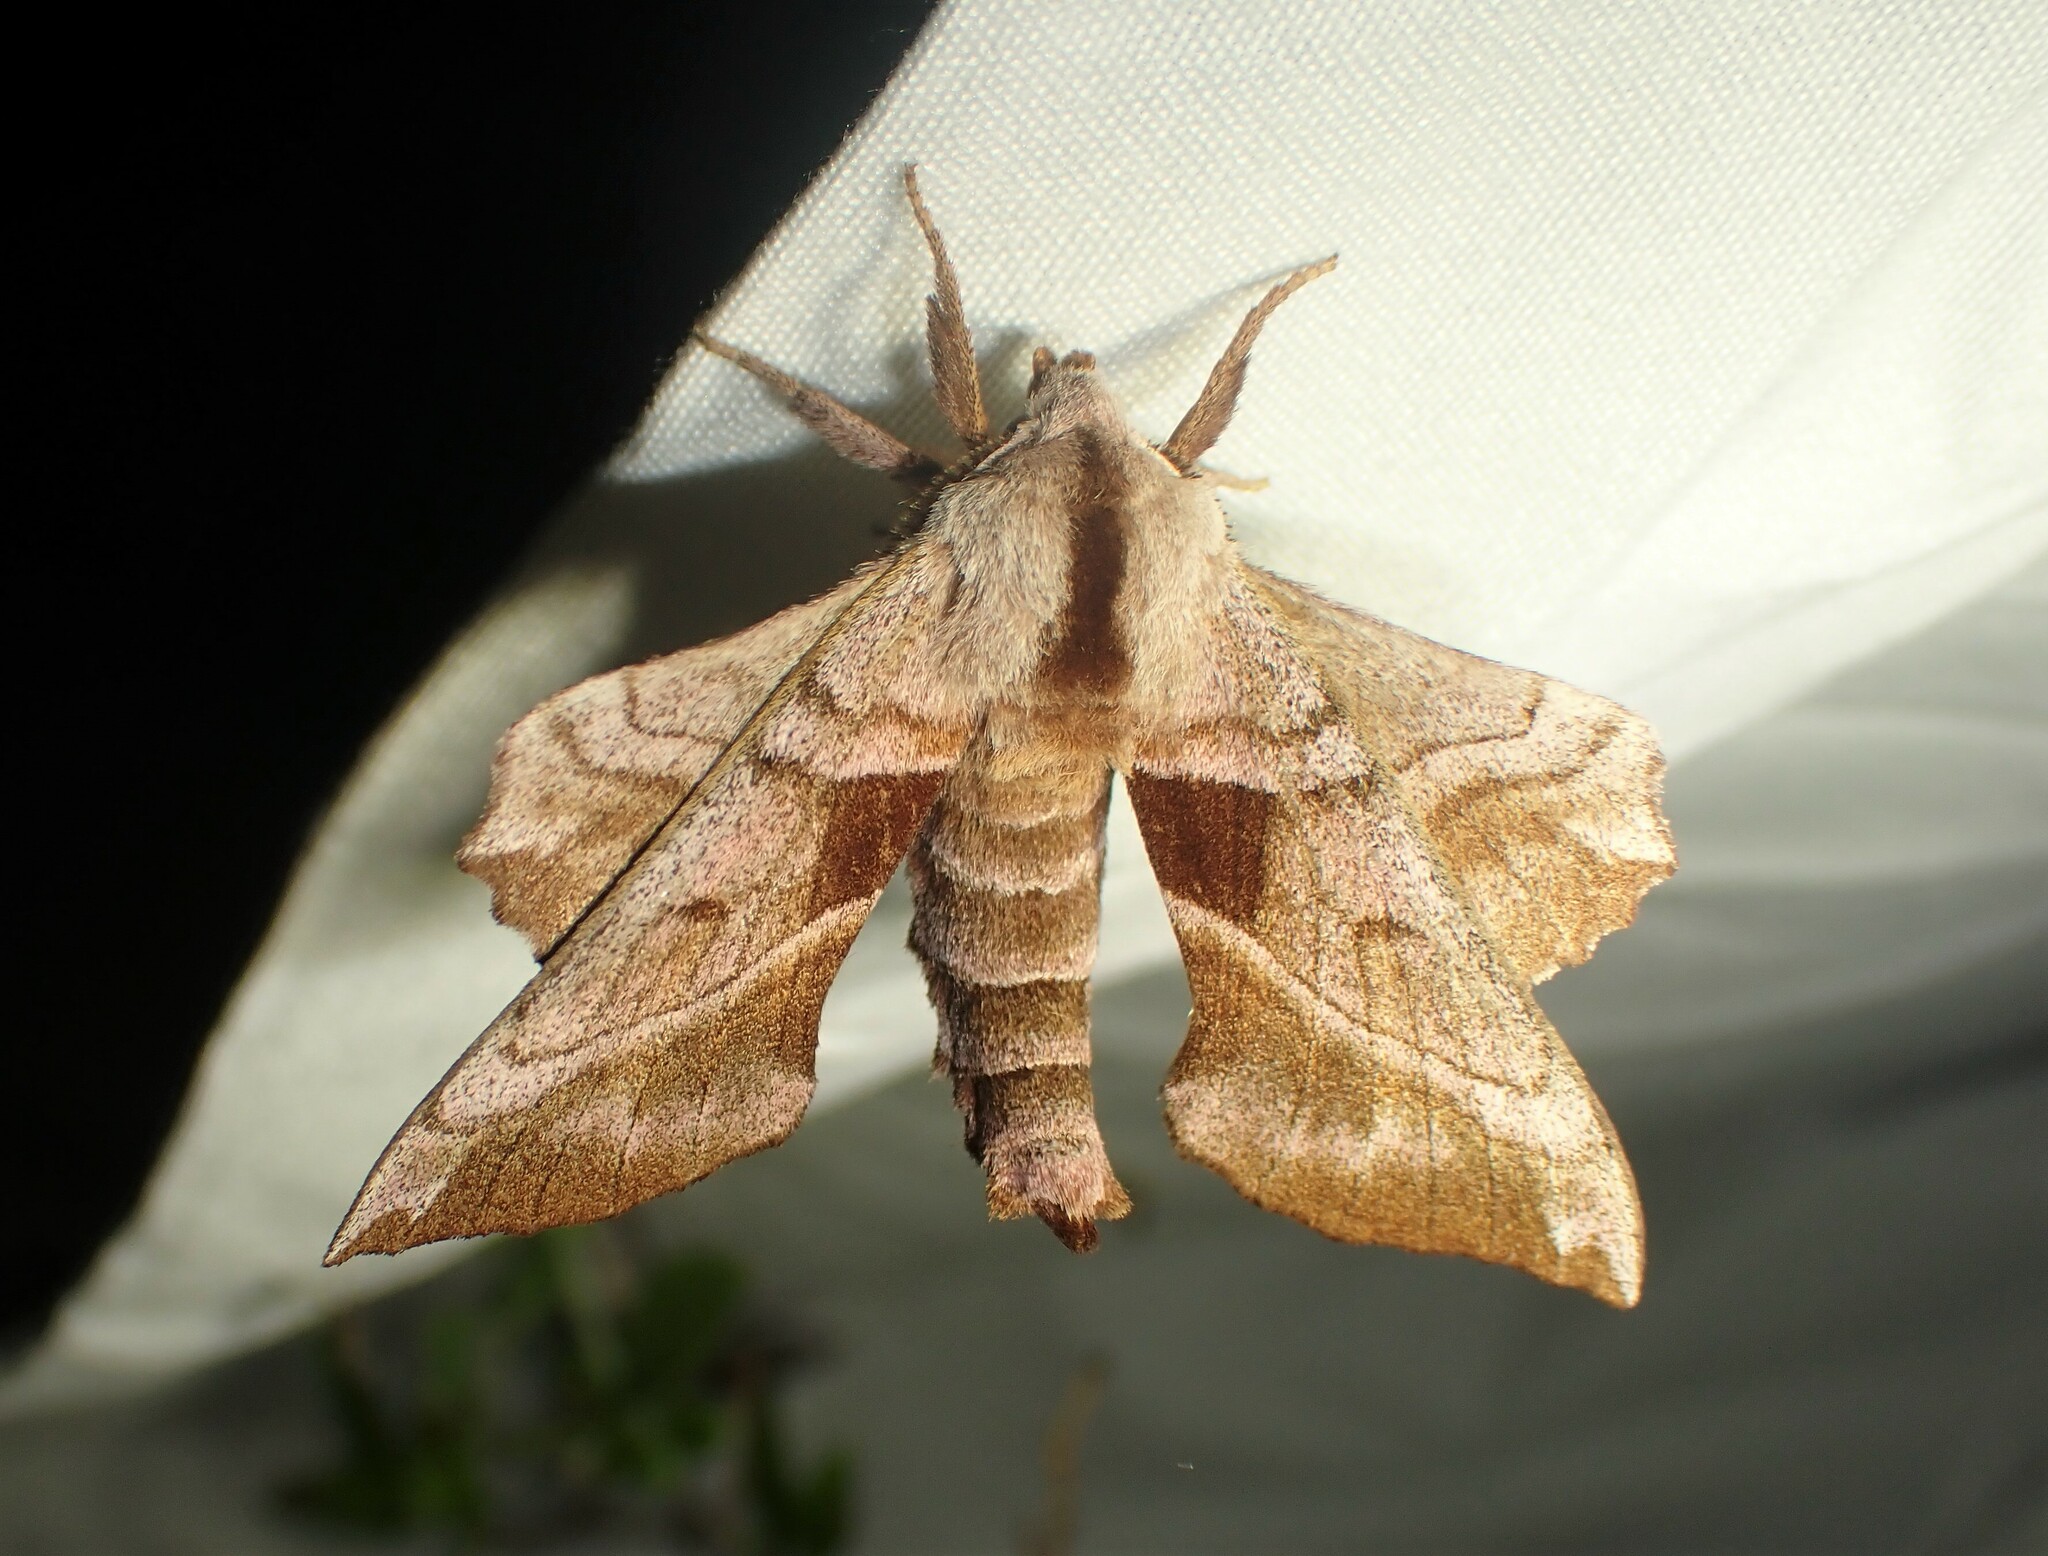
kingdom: Animalia
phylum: Arthropoda
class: Insecta
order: Lepidoptera
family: Sphingidae
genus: Amorpha
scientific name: Amorpha juglandis
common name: Walnut sphinx
